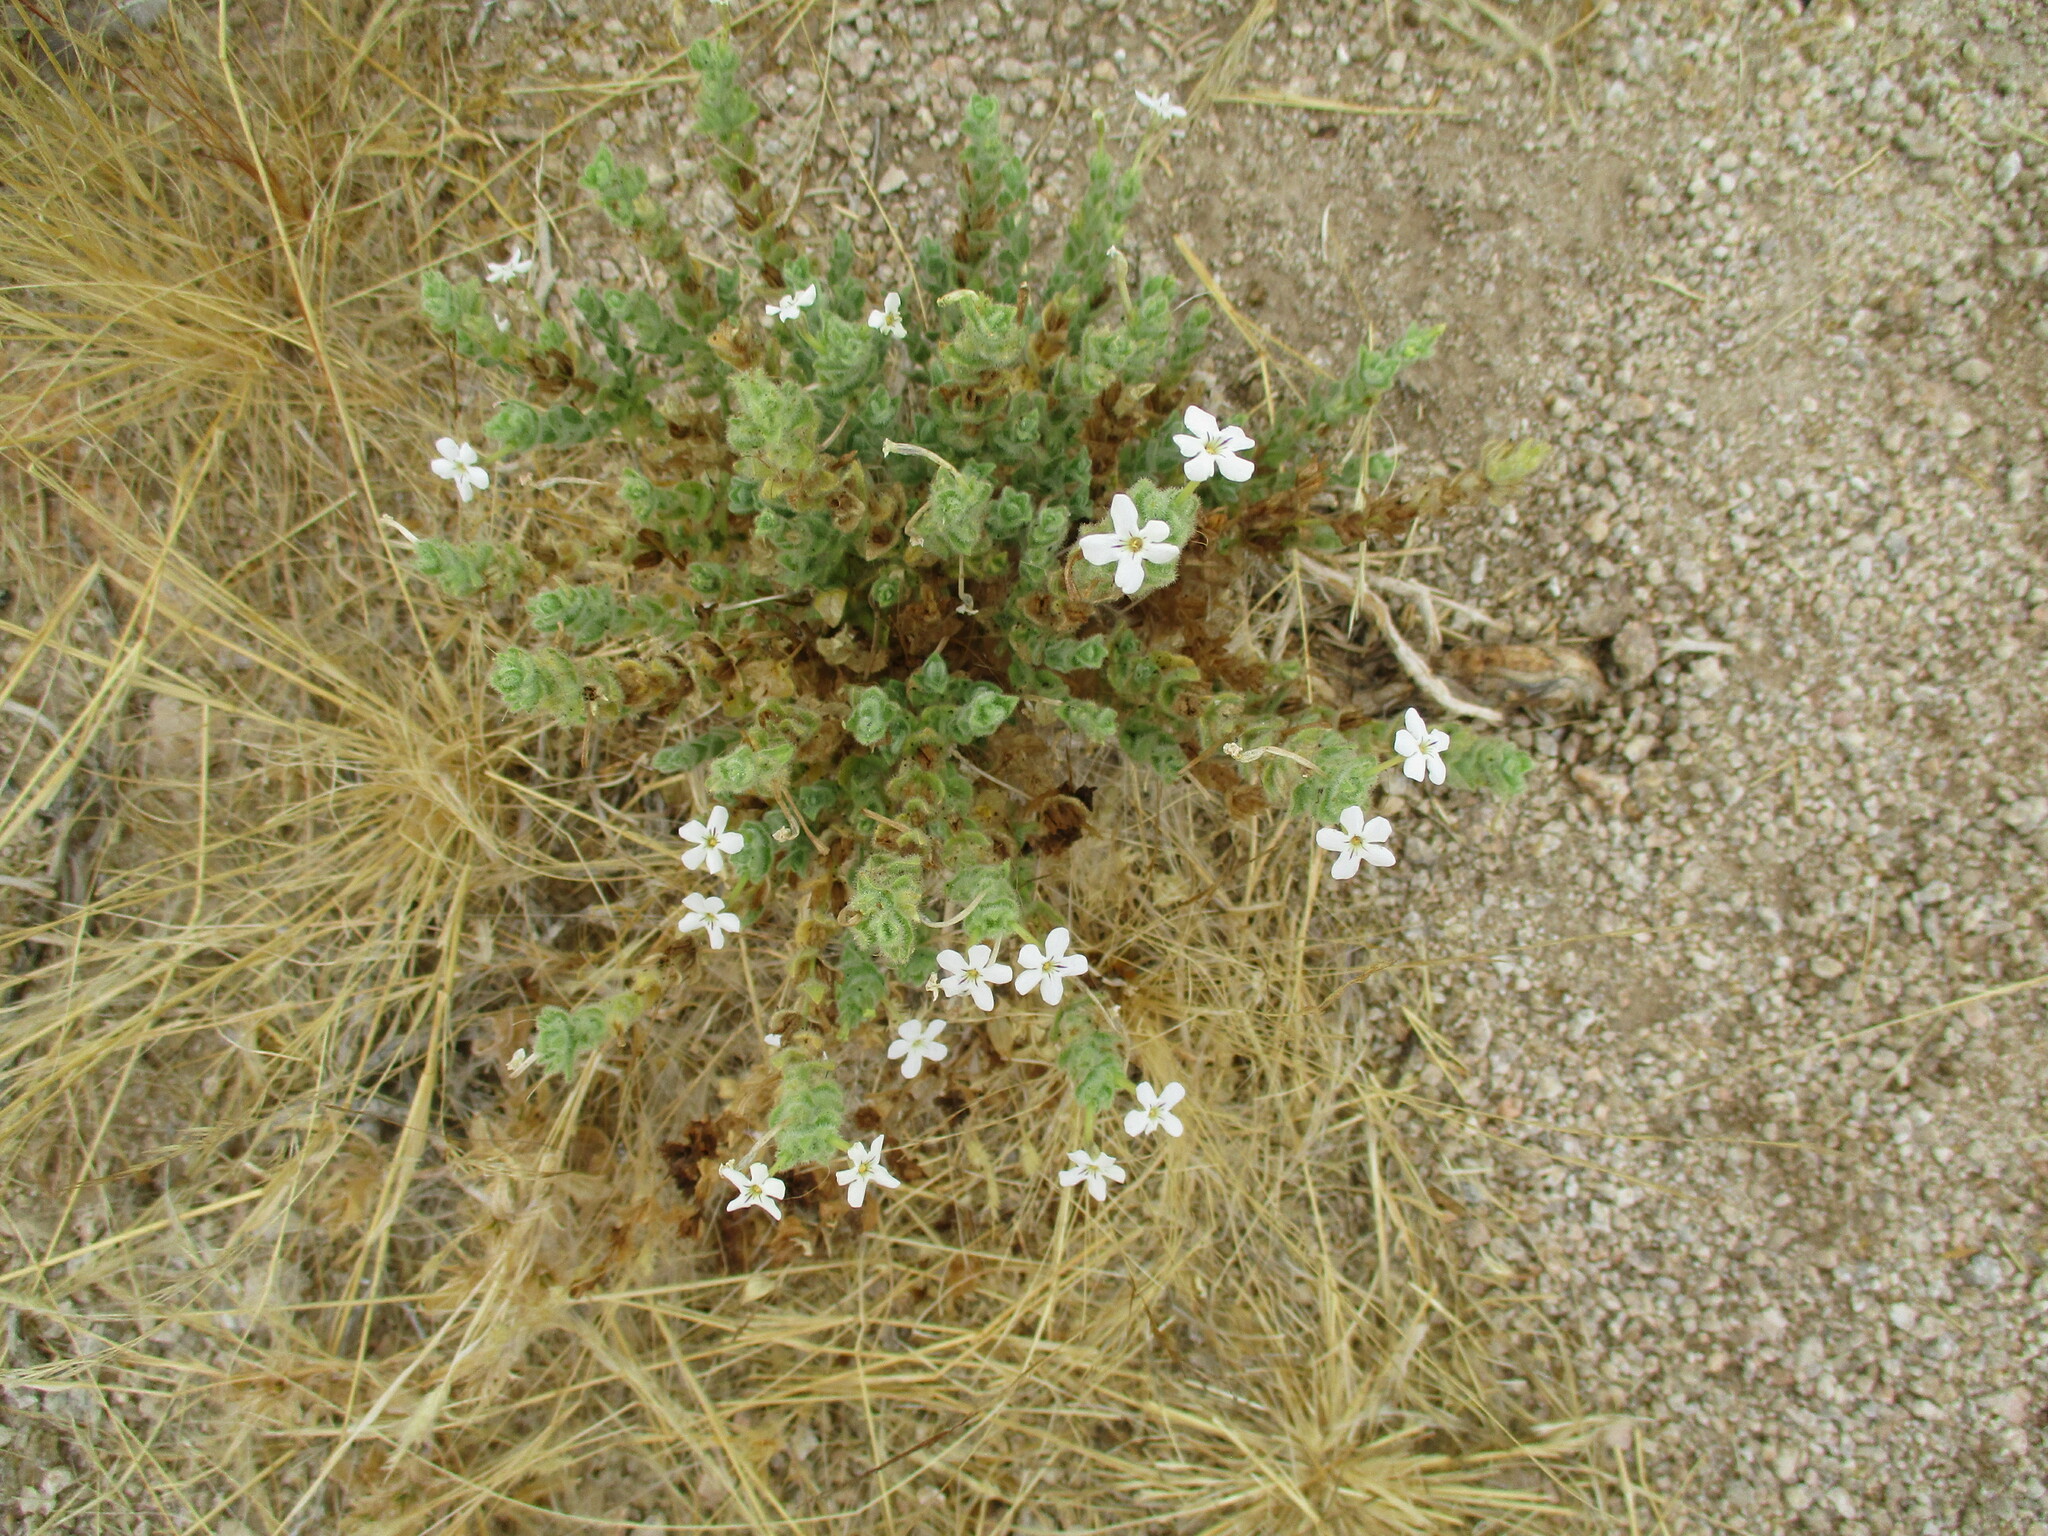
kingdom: Plantae
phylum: Tracheophyta
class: Magnoliopsida
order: Lamiales
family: Scrophulariaceae
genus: Jamesbrittenia
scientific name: Jamesbrittenia maxii
